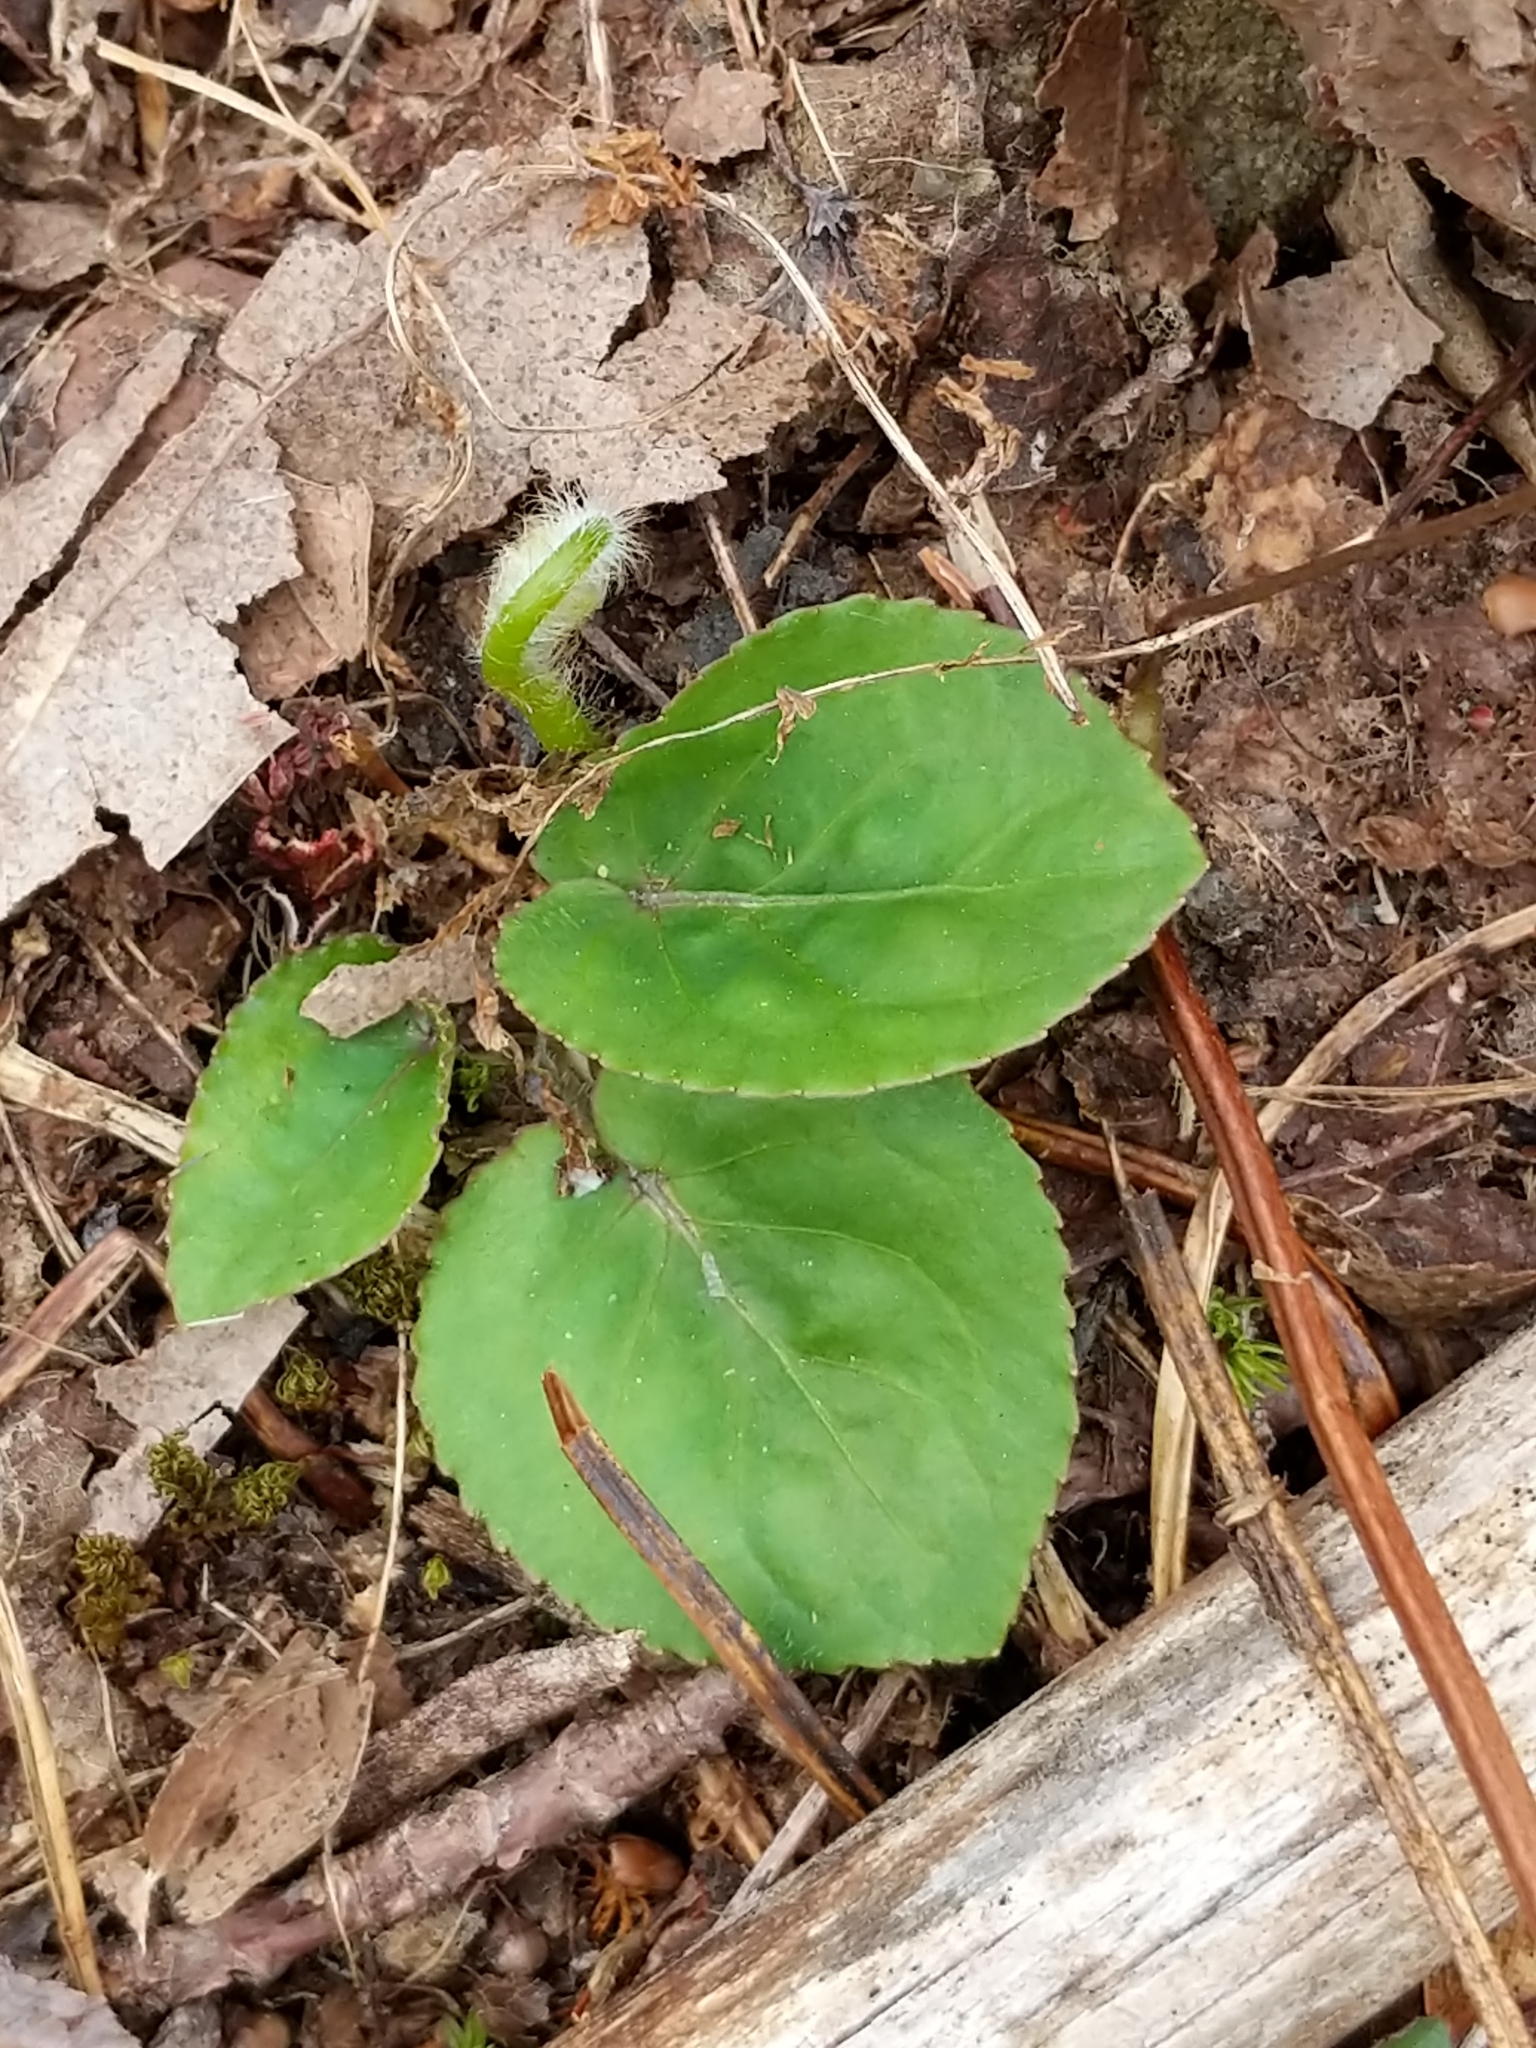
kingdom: Plantae
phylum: Tracheophyta
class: Magnoliopsida
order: Malpighiales
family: Violaceae
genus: Viola
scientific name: Viola rotundifolia
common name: Early yellow violet
